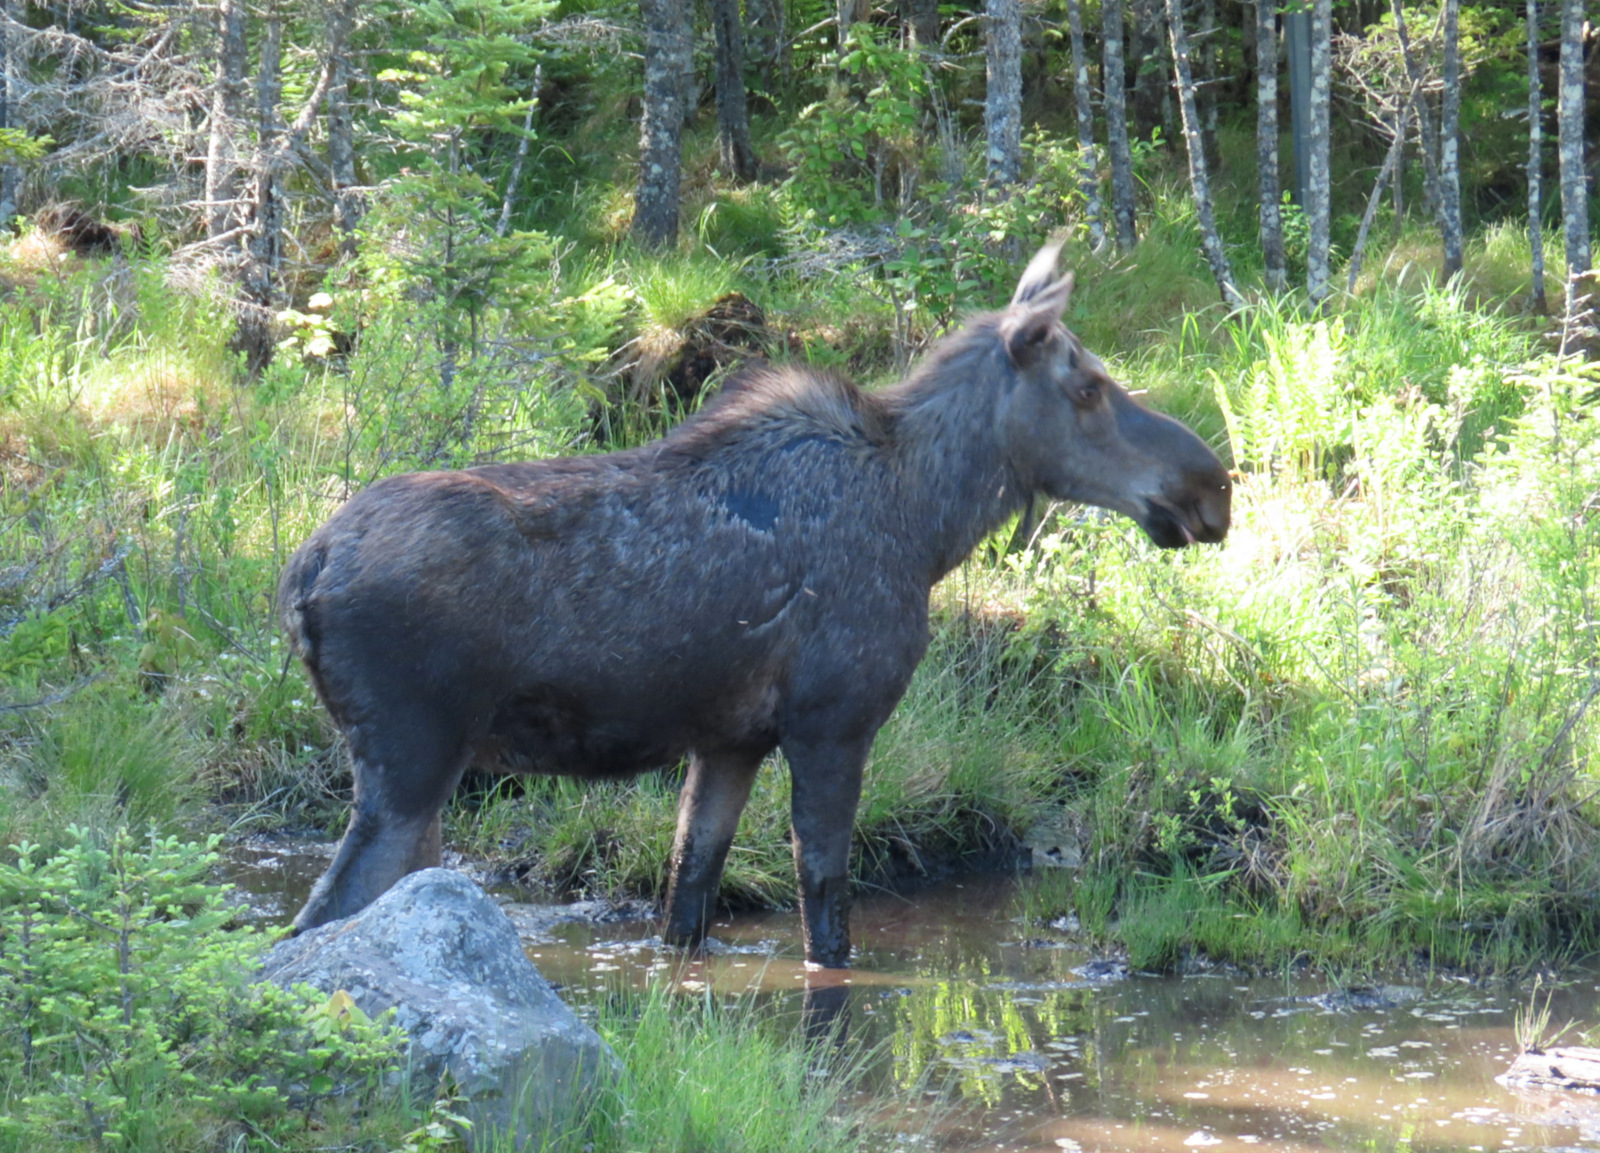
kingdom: Animalia
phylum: Chordata
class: Mammalia
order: Artiodactyla
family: Cervidae
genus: Alces
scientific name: Alces alces
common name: Moose
